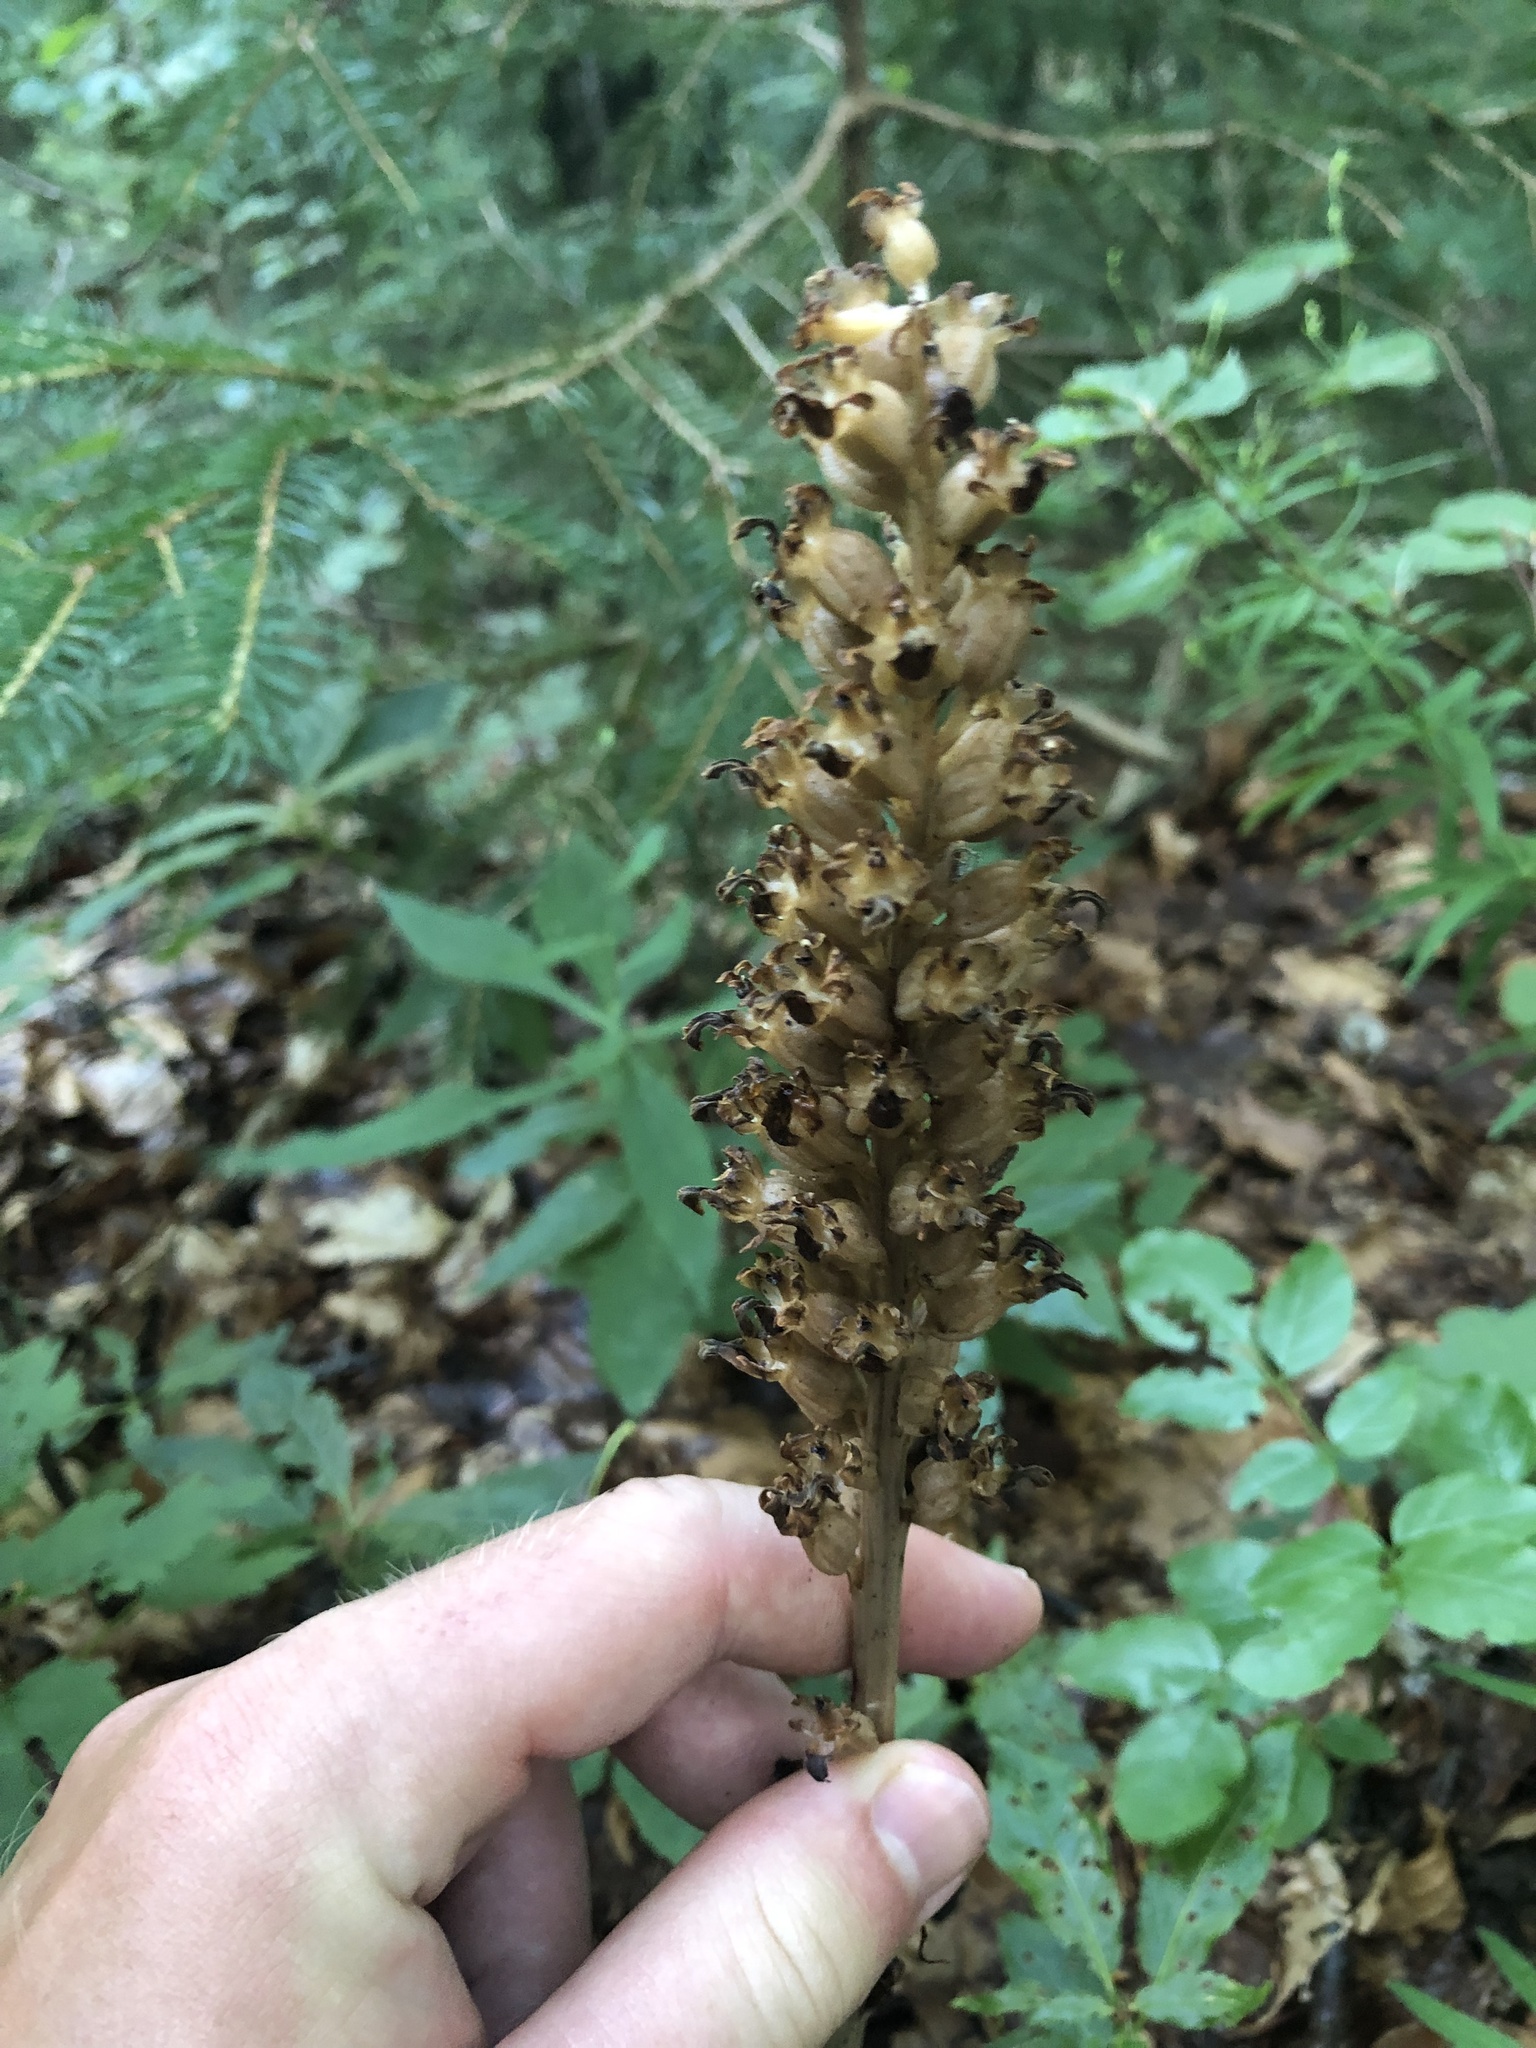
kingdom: Plantae
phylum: Tracheophyta
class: Liliopsida
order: Asparagales
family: Orchidaceae
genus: Neottia
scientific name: Neottia nidus-avis
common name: Bird's-nest orchid
